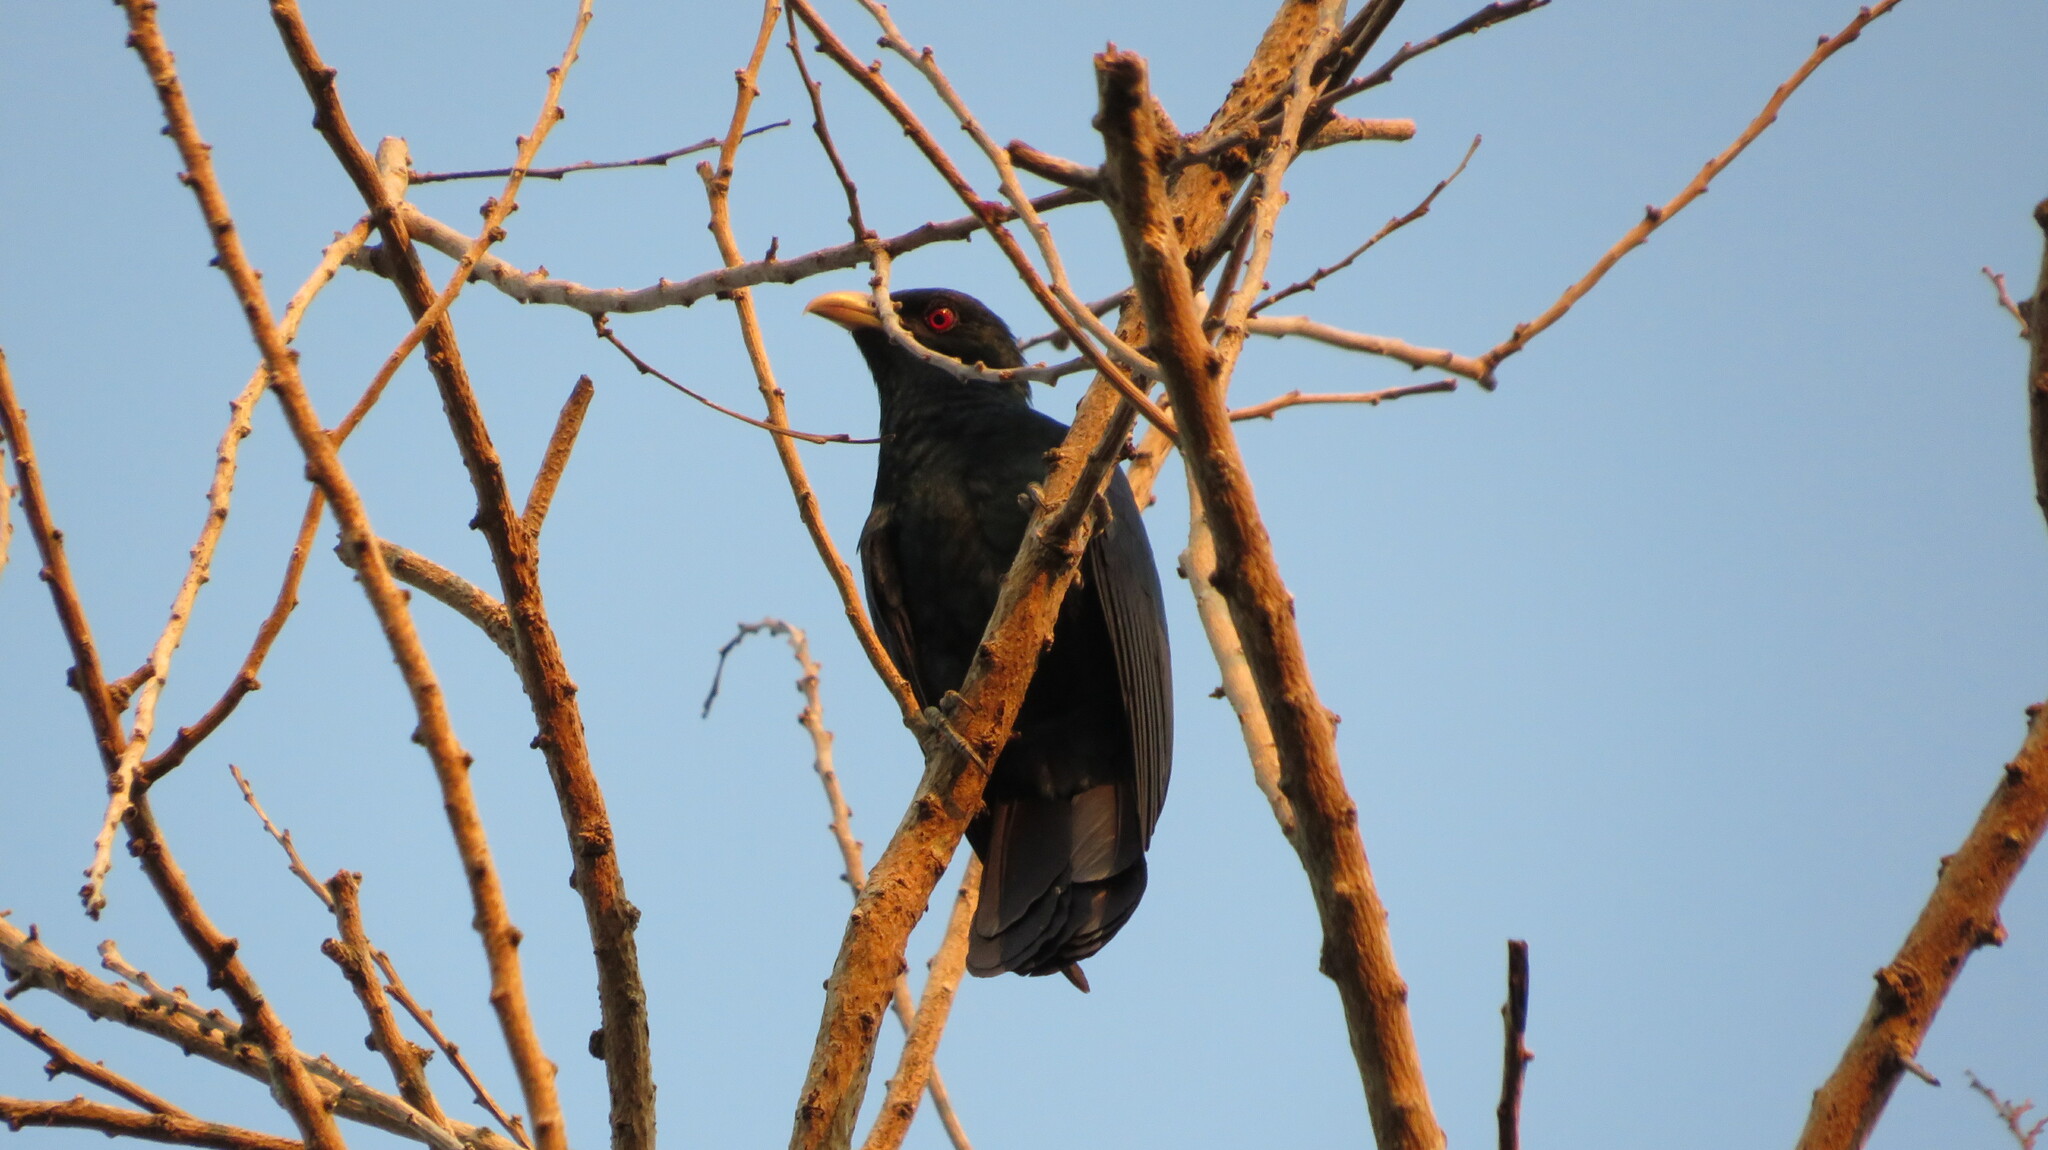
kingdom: Animalia
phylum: Chordata
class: Aves
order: Cuculiformes
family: Cuculidae
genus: Eudynamys
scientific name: Eudynamys scolopaceus
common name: Asian koel
